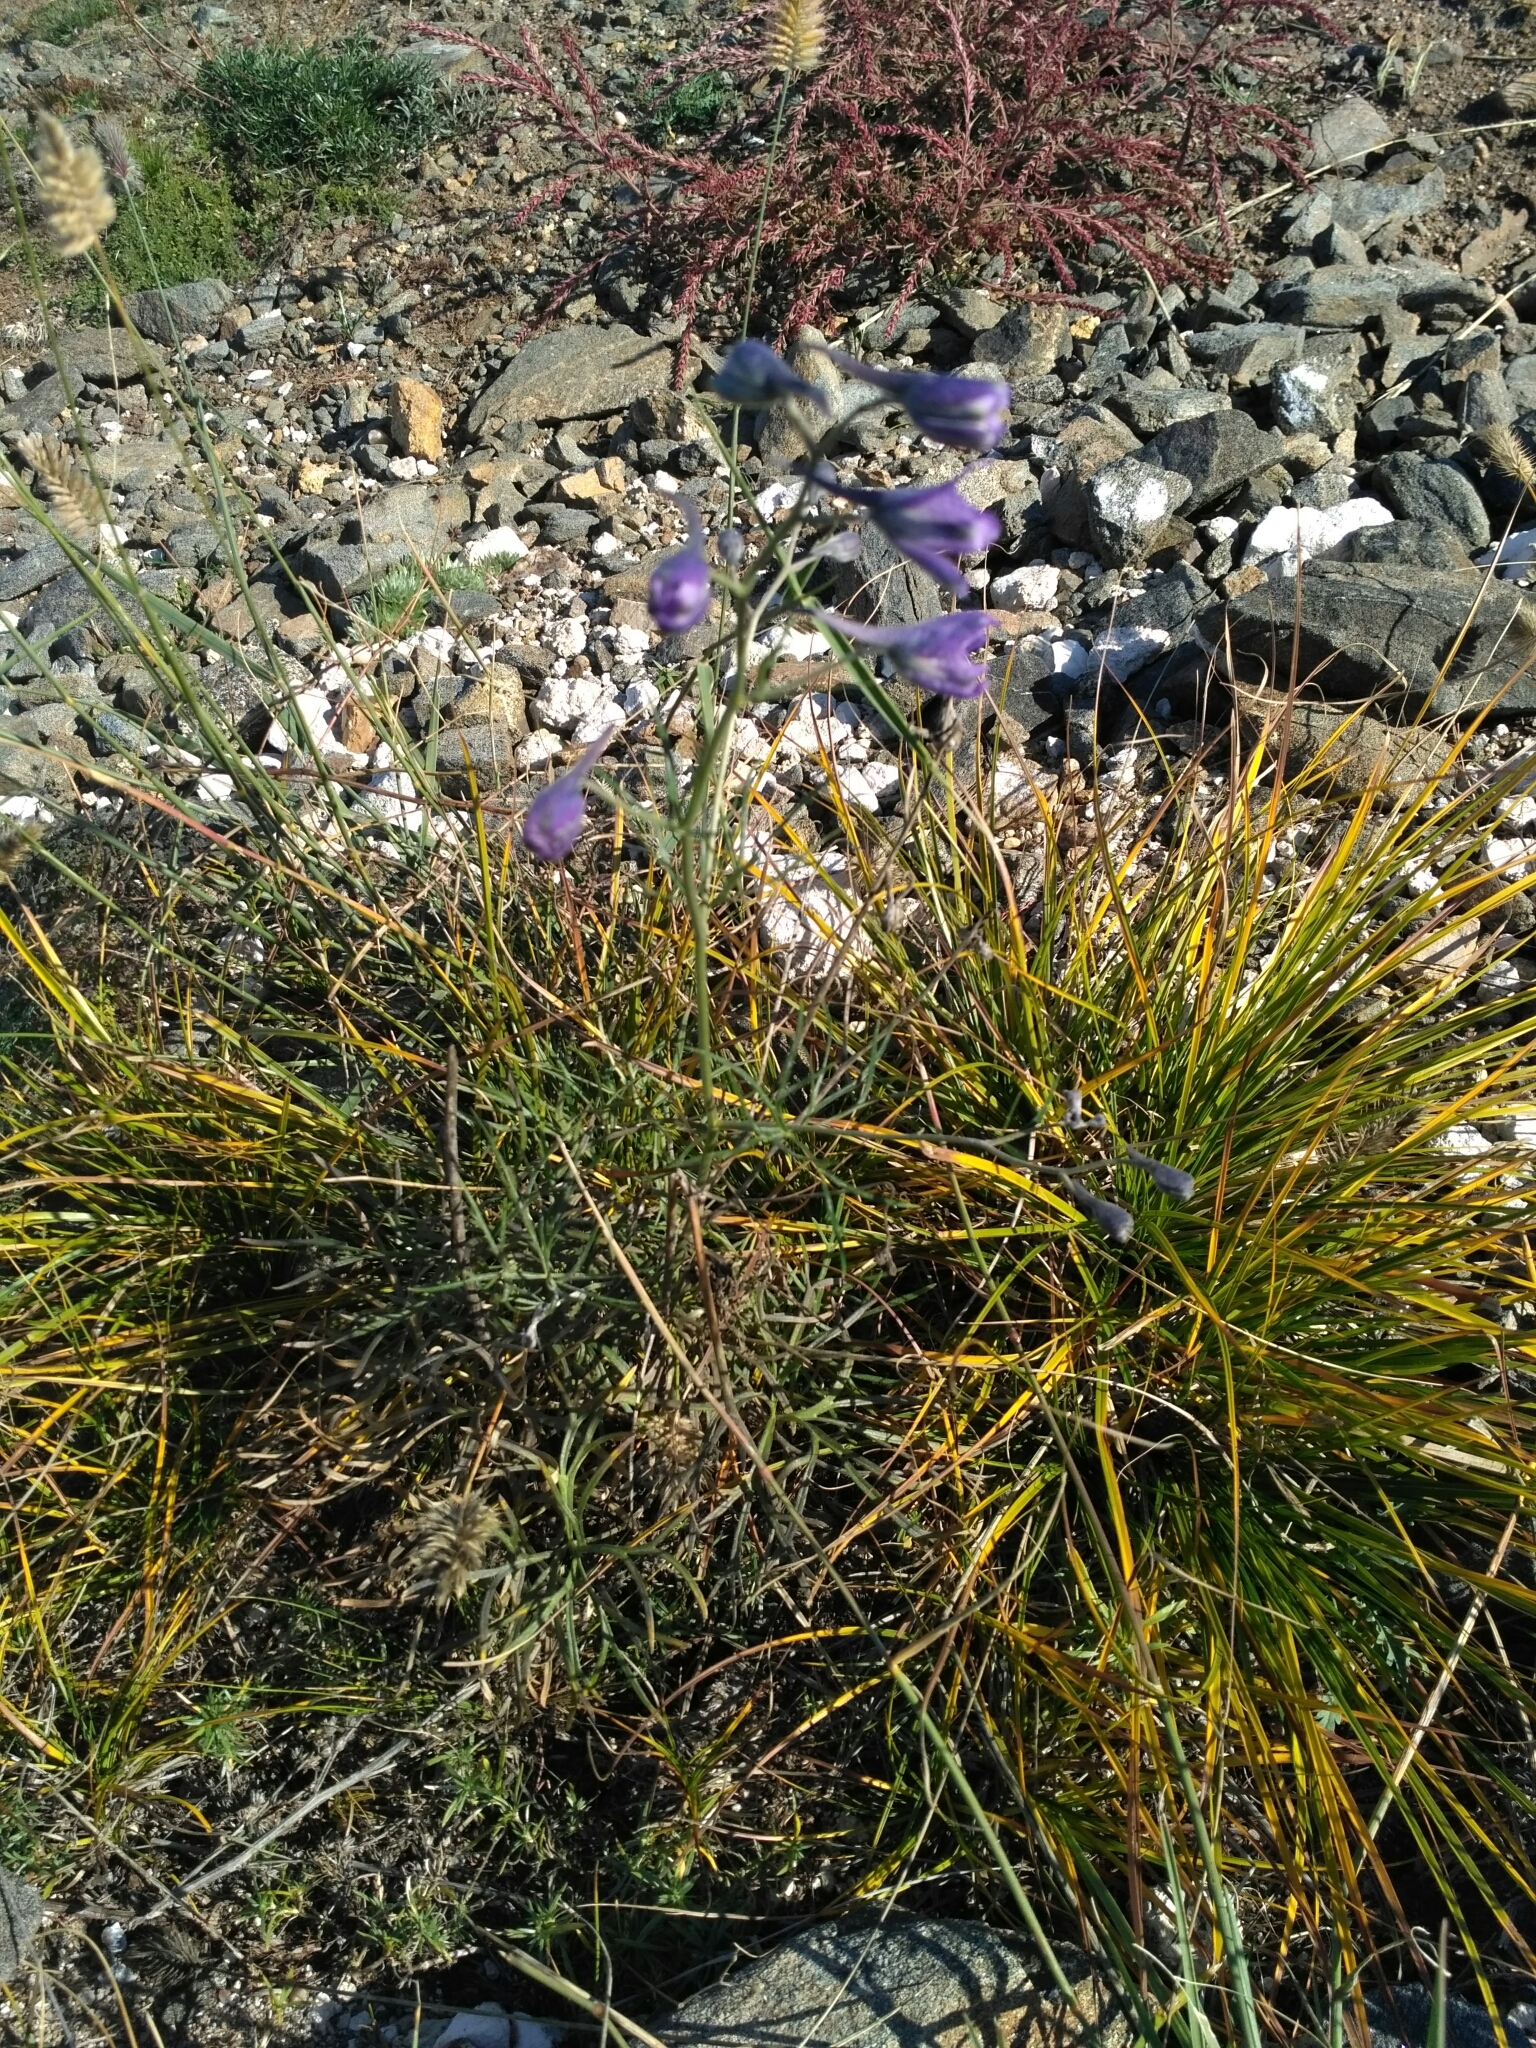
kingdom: Plantae
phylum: Tracheophyta
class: Magnoliopsida
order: Ranunculales
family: Ranunculaceae
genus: Delphinium
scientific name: Delphinium grandiflorum
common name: Siberian larkspur
